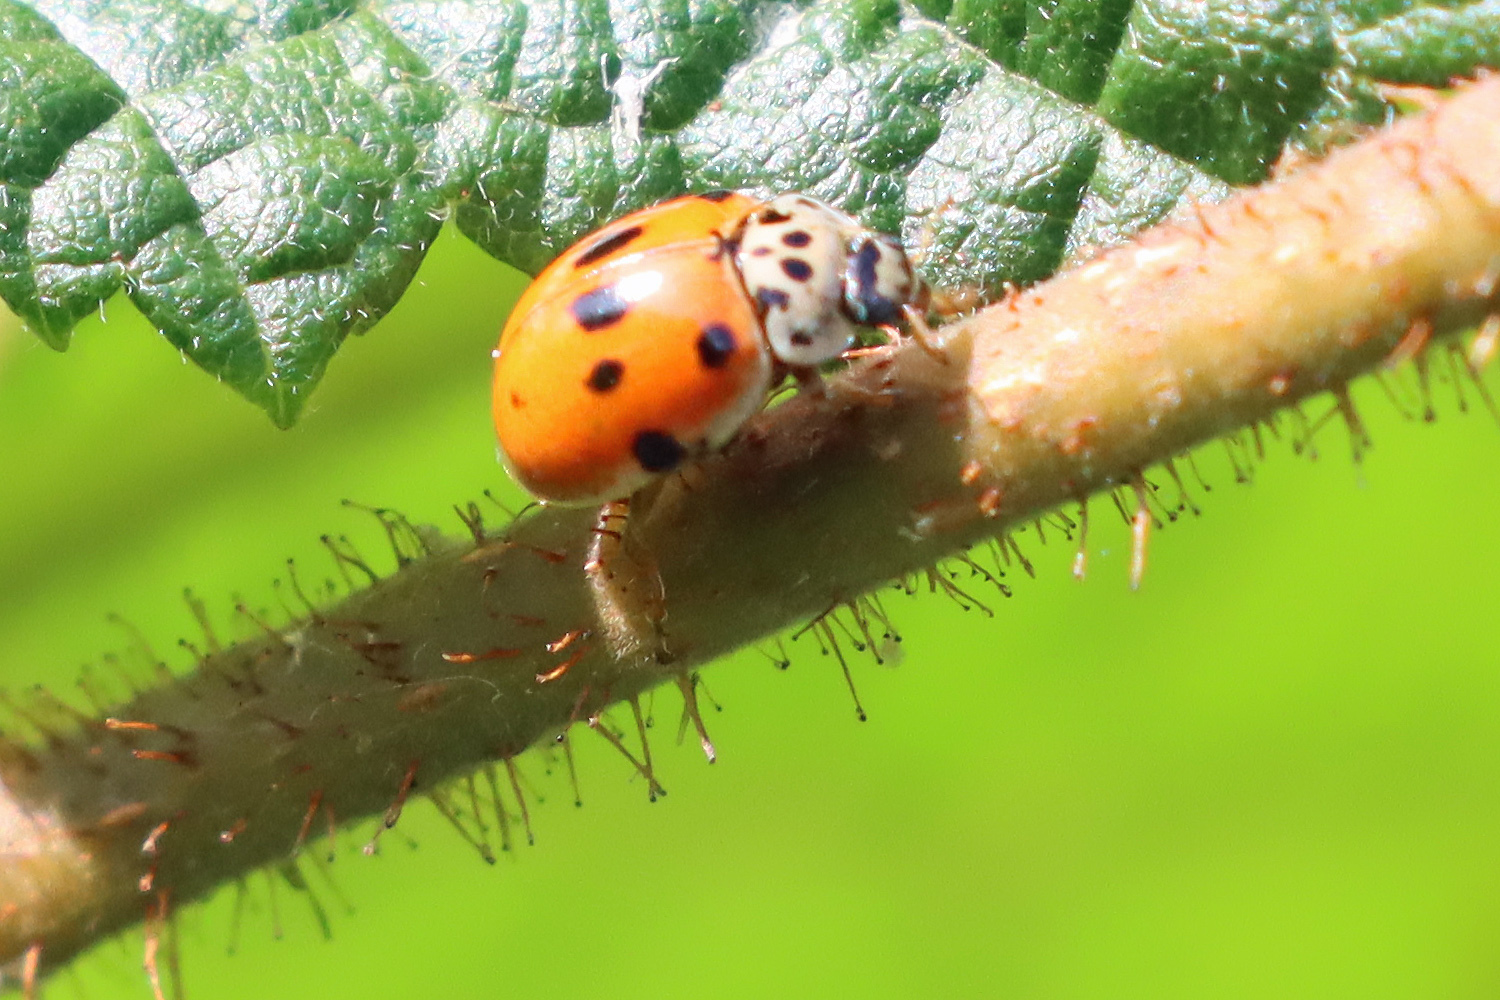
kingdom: Animalia
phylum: Arthropoda
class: Insecta
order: Coleoptera
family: Coccinellidae
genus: Adalia
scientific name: Adalia decempunctata
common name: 10-spot ladybird
